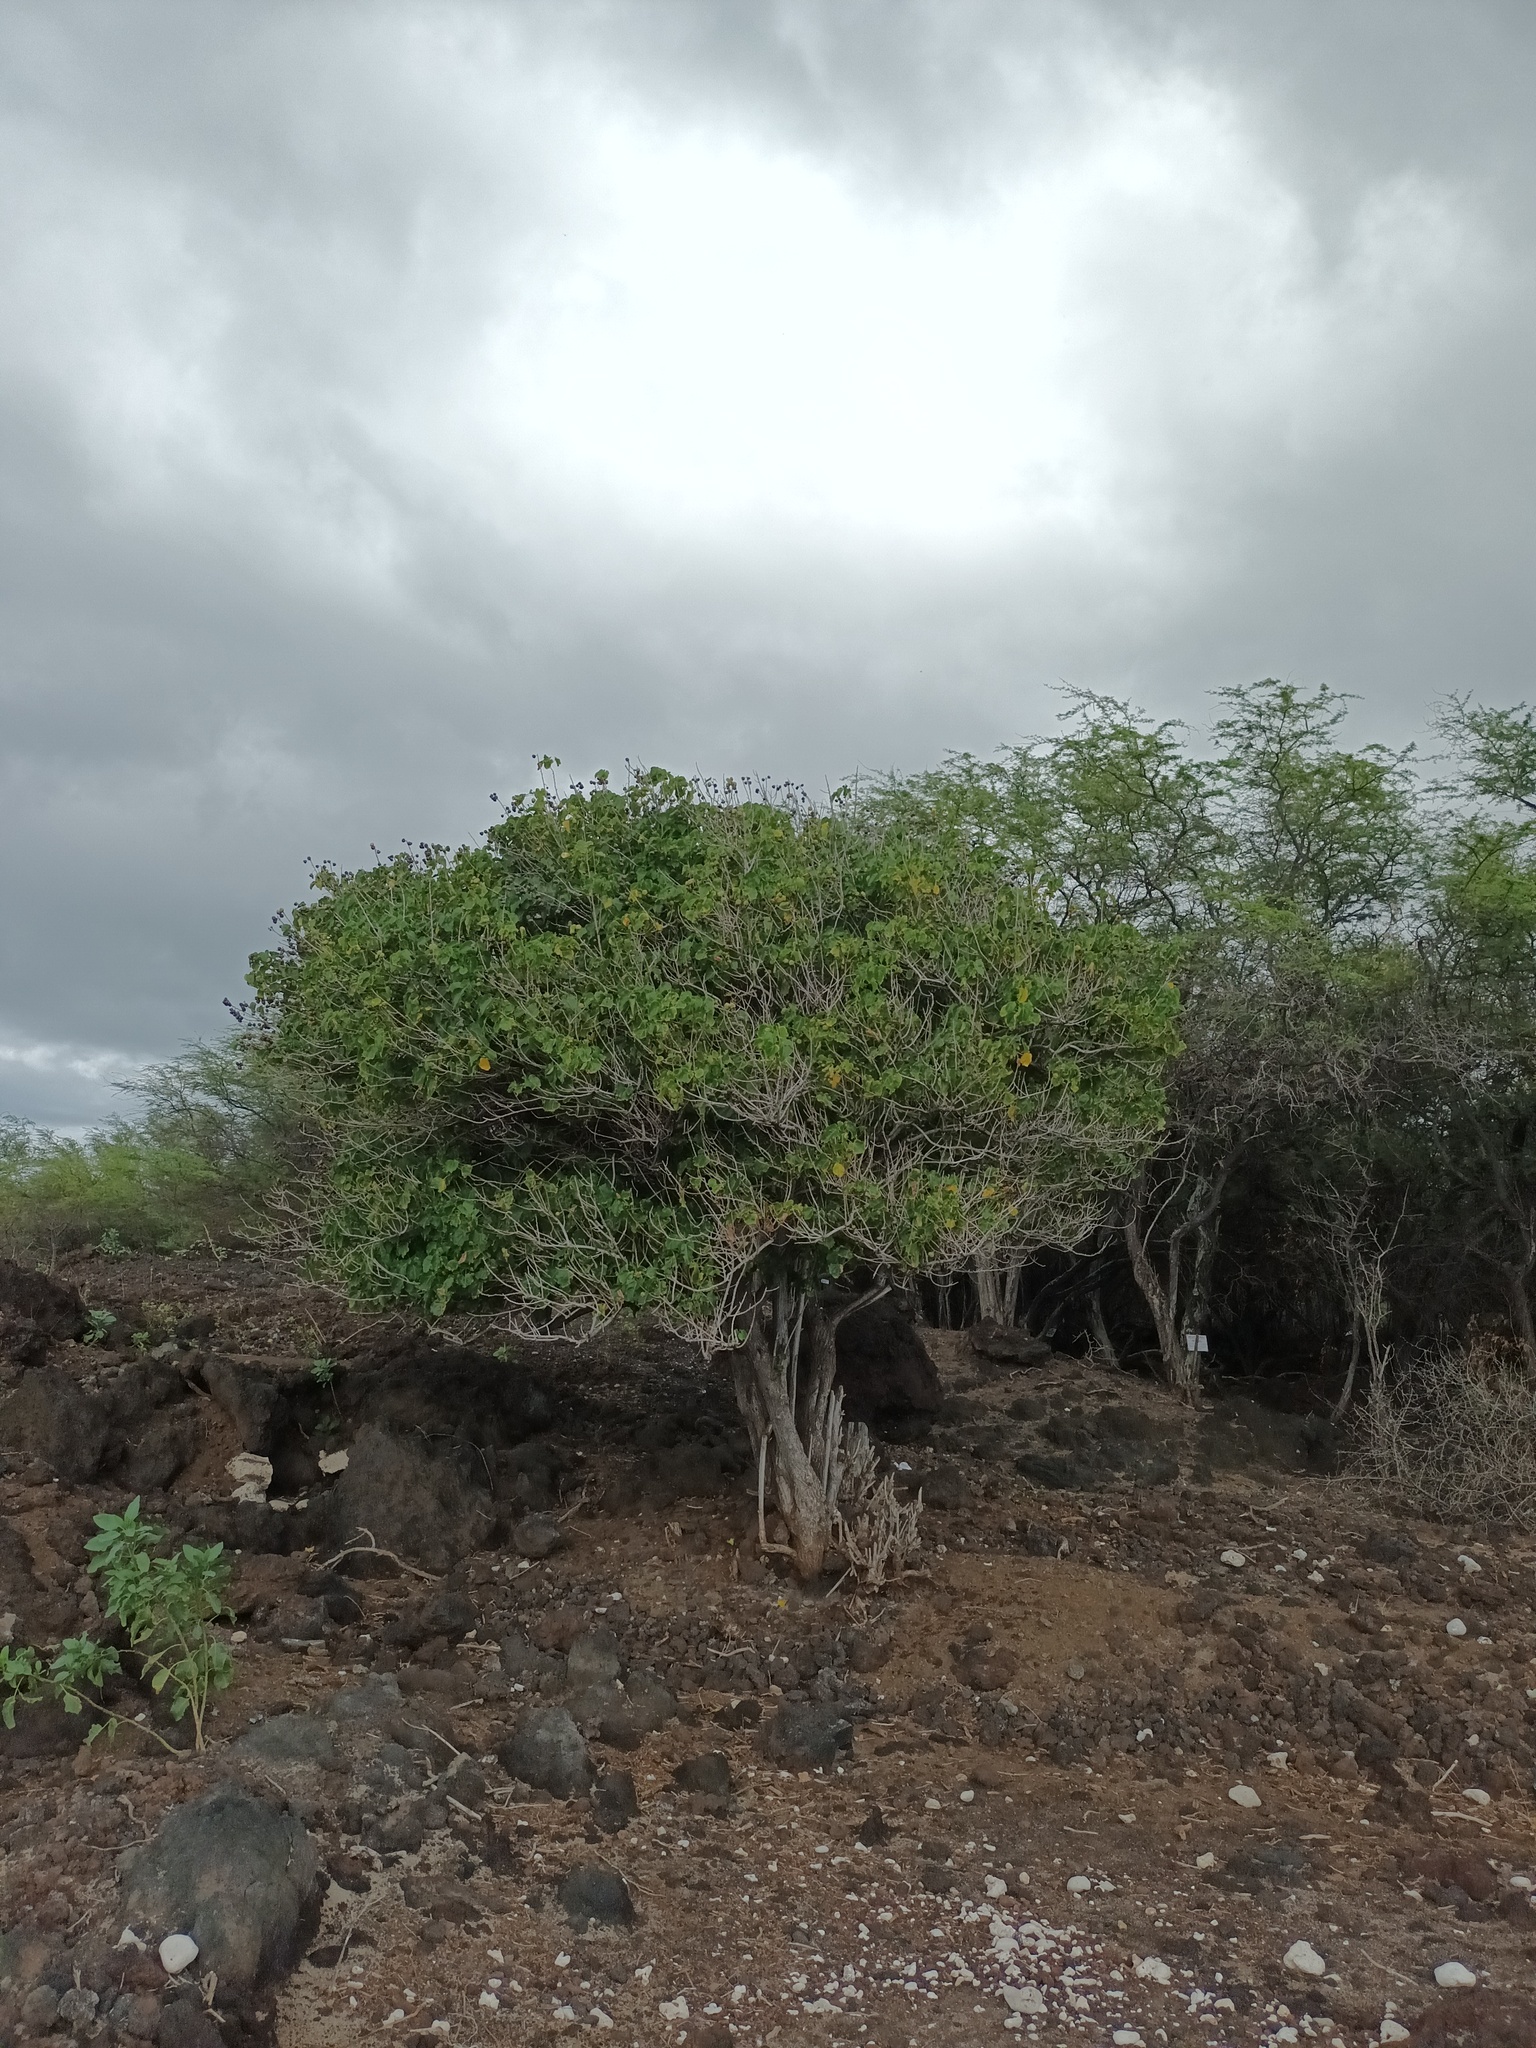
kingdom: Plantae
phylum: Tracheophyta
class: Magnoliopsida
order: Malvales
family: Malvaceae
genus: Thespesia
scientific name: Thespesia populnea
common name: Seaside mahoe
